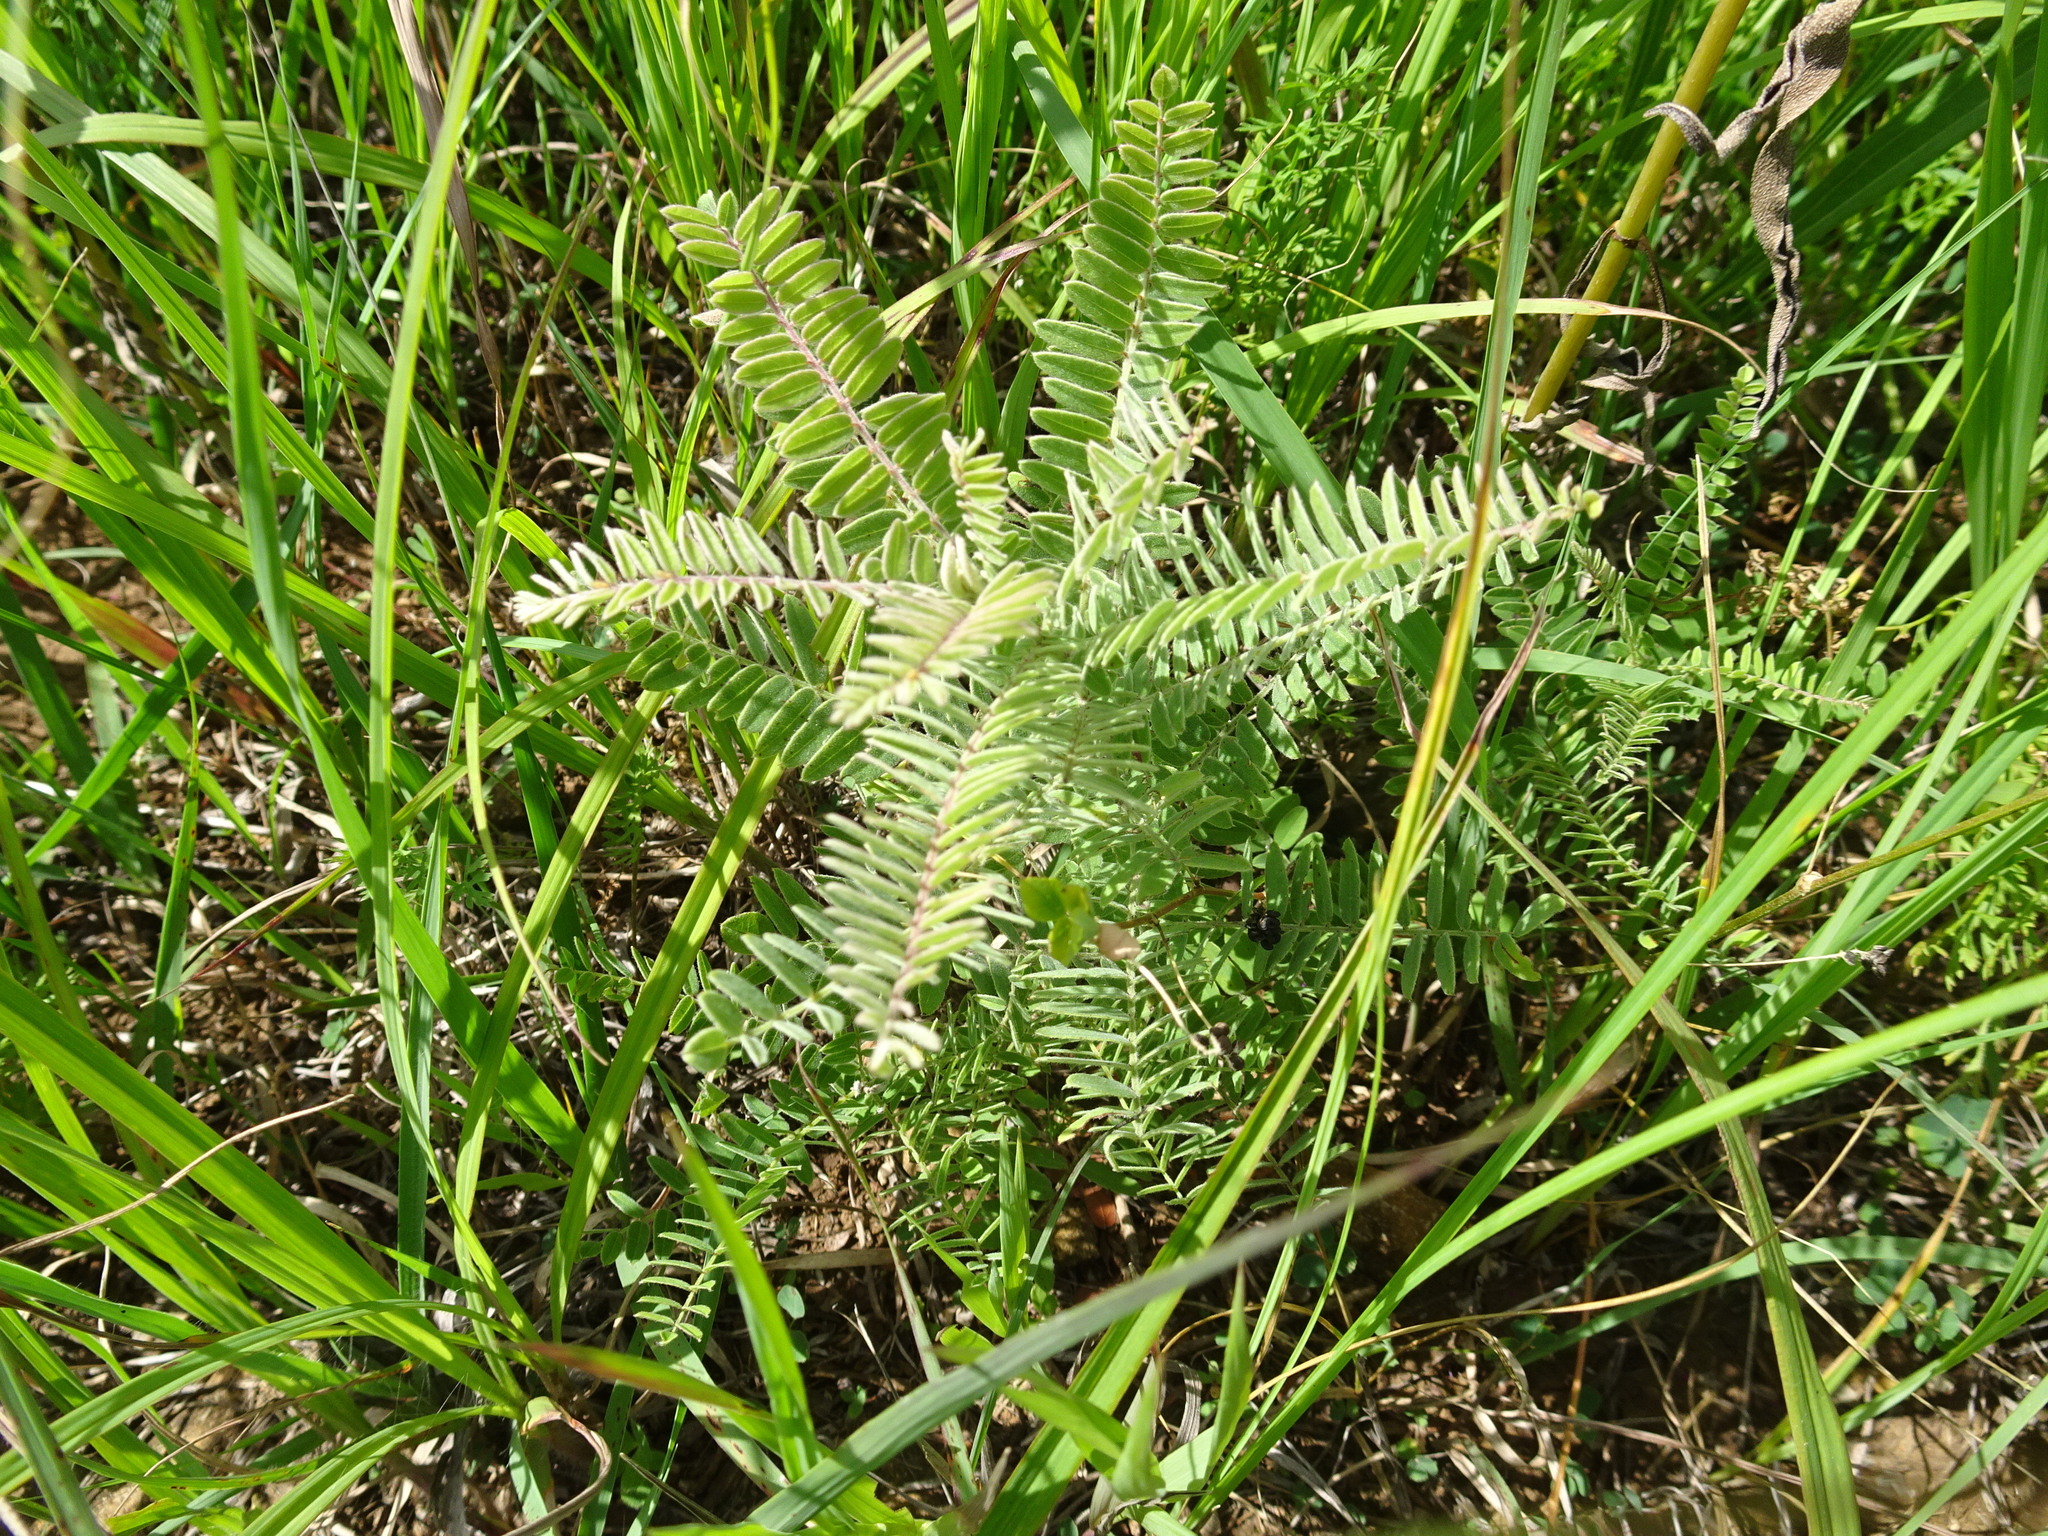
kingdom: Plantae
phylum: Tracheophyta
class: Magnoliopsida
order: Fabales
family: Fabaceae
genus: Amorpha
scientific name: Amorpha canescens
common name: Leadplant
